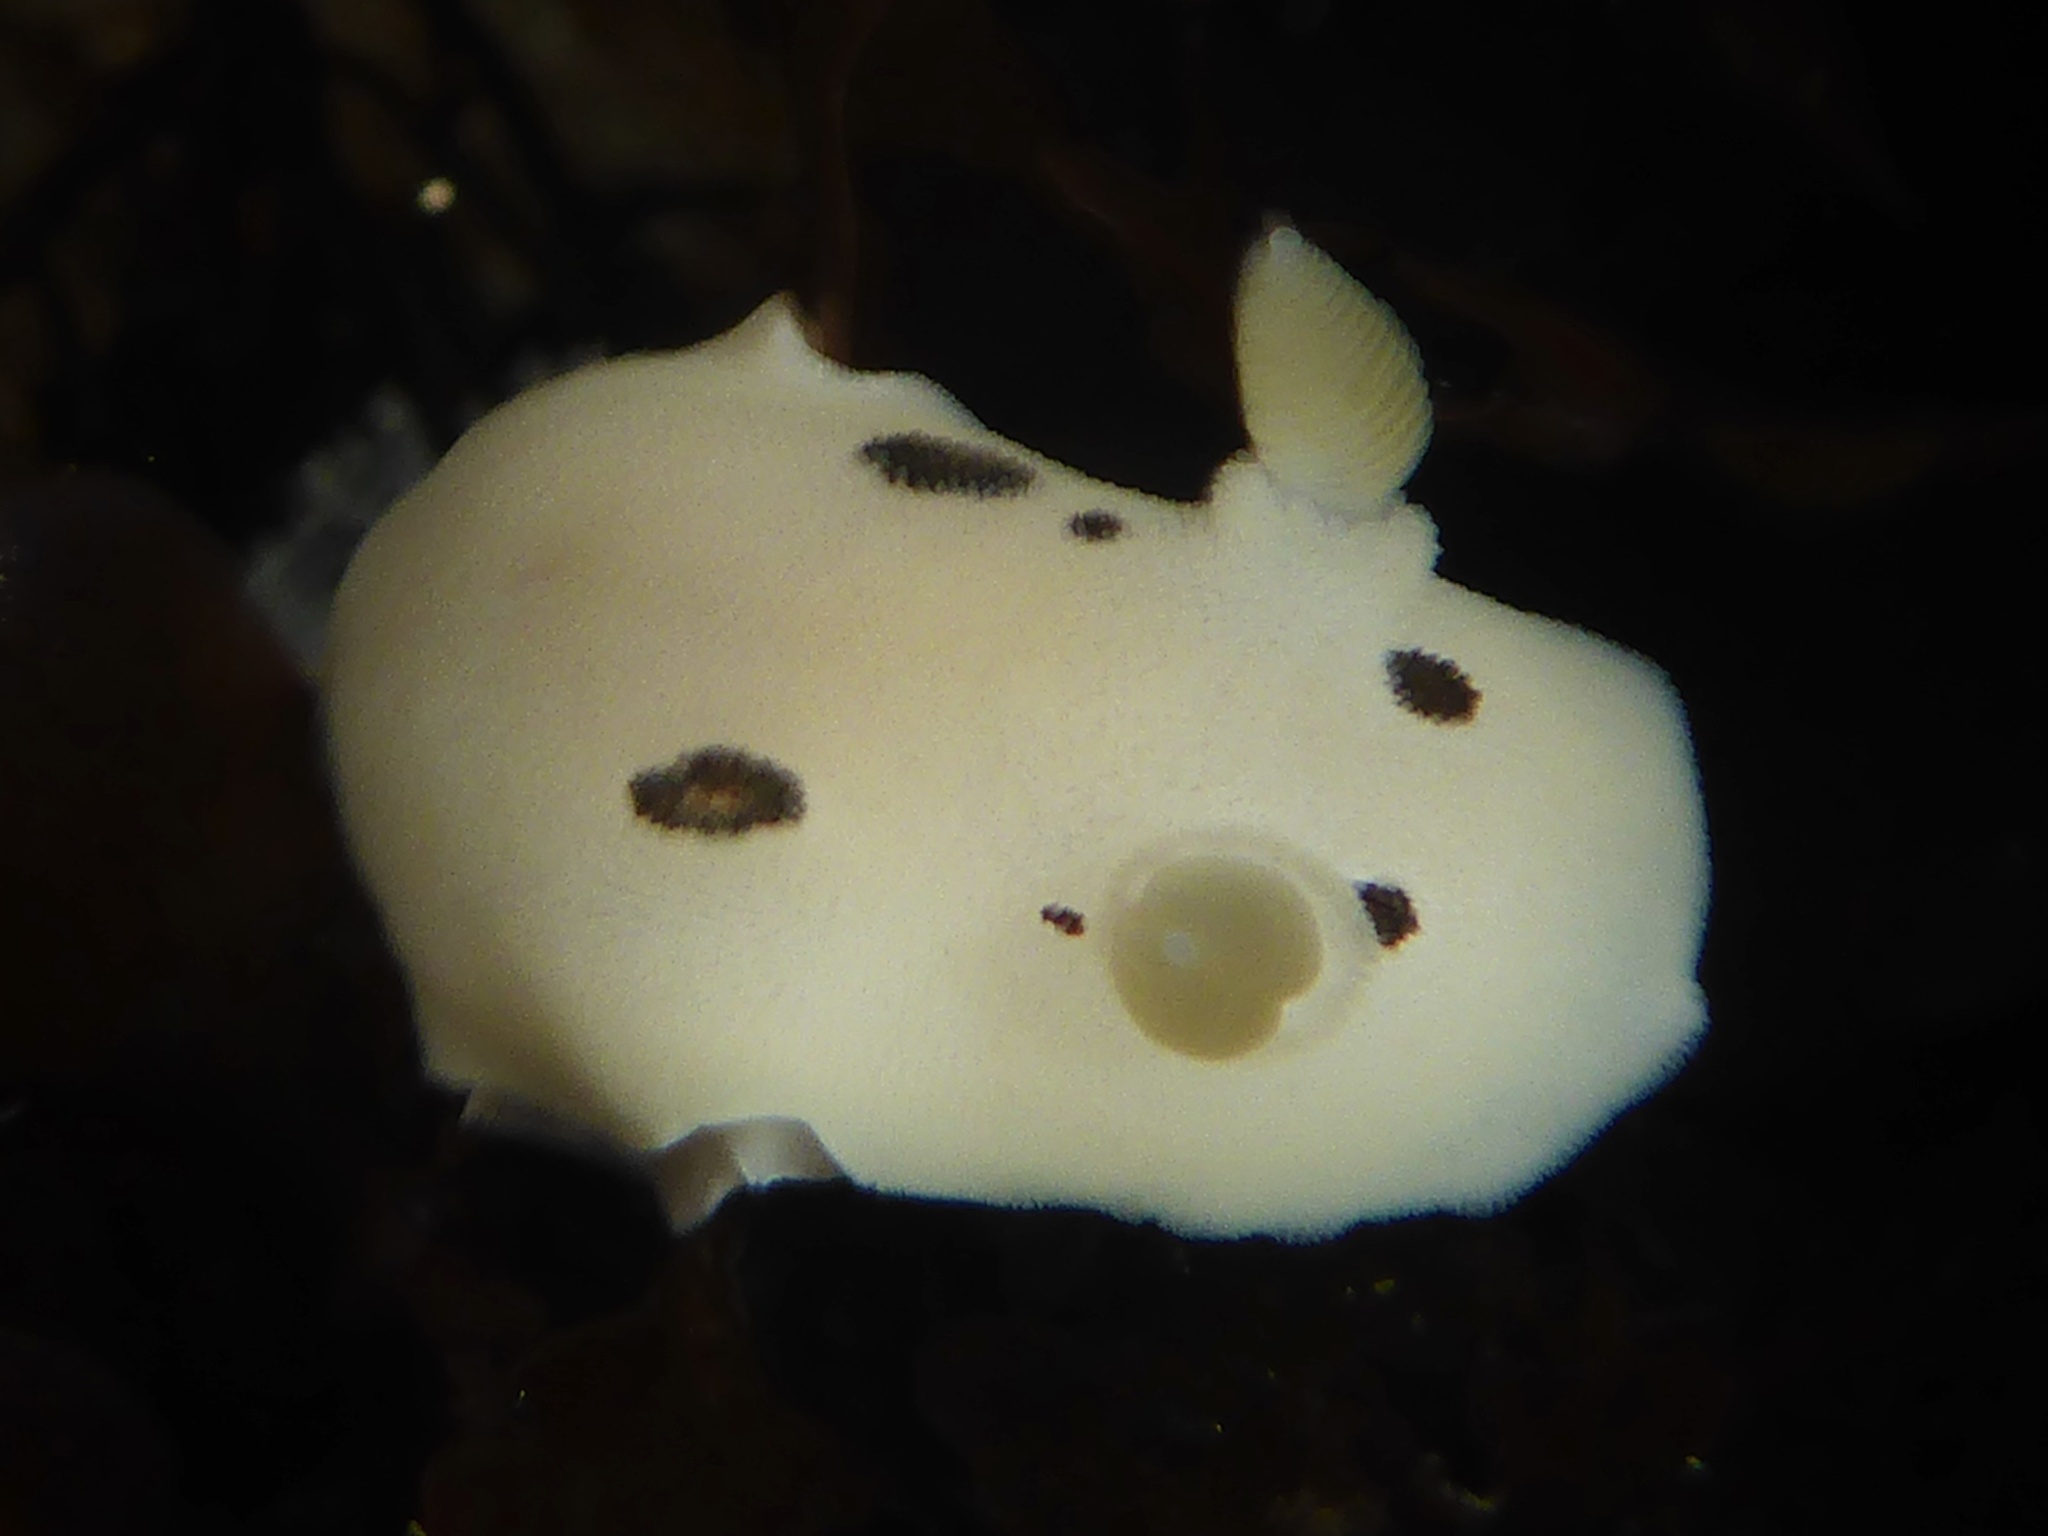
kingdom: Animalia
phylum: Mollusca
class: Gastropoda
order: Nudibranchia
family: Discodorididae
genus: Diaulula
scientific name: Diaulula sandiegensis
